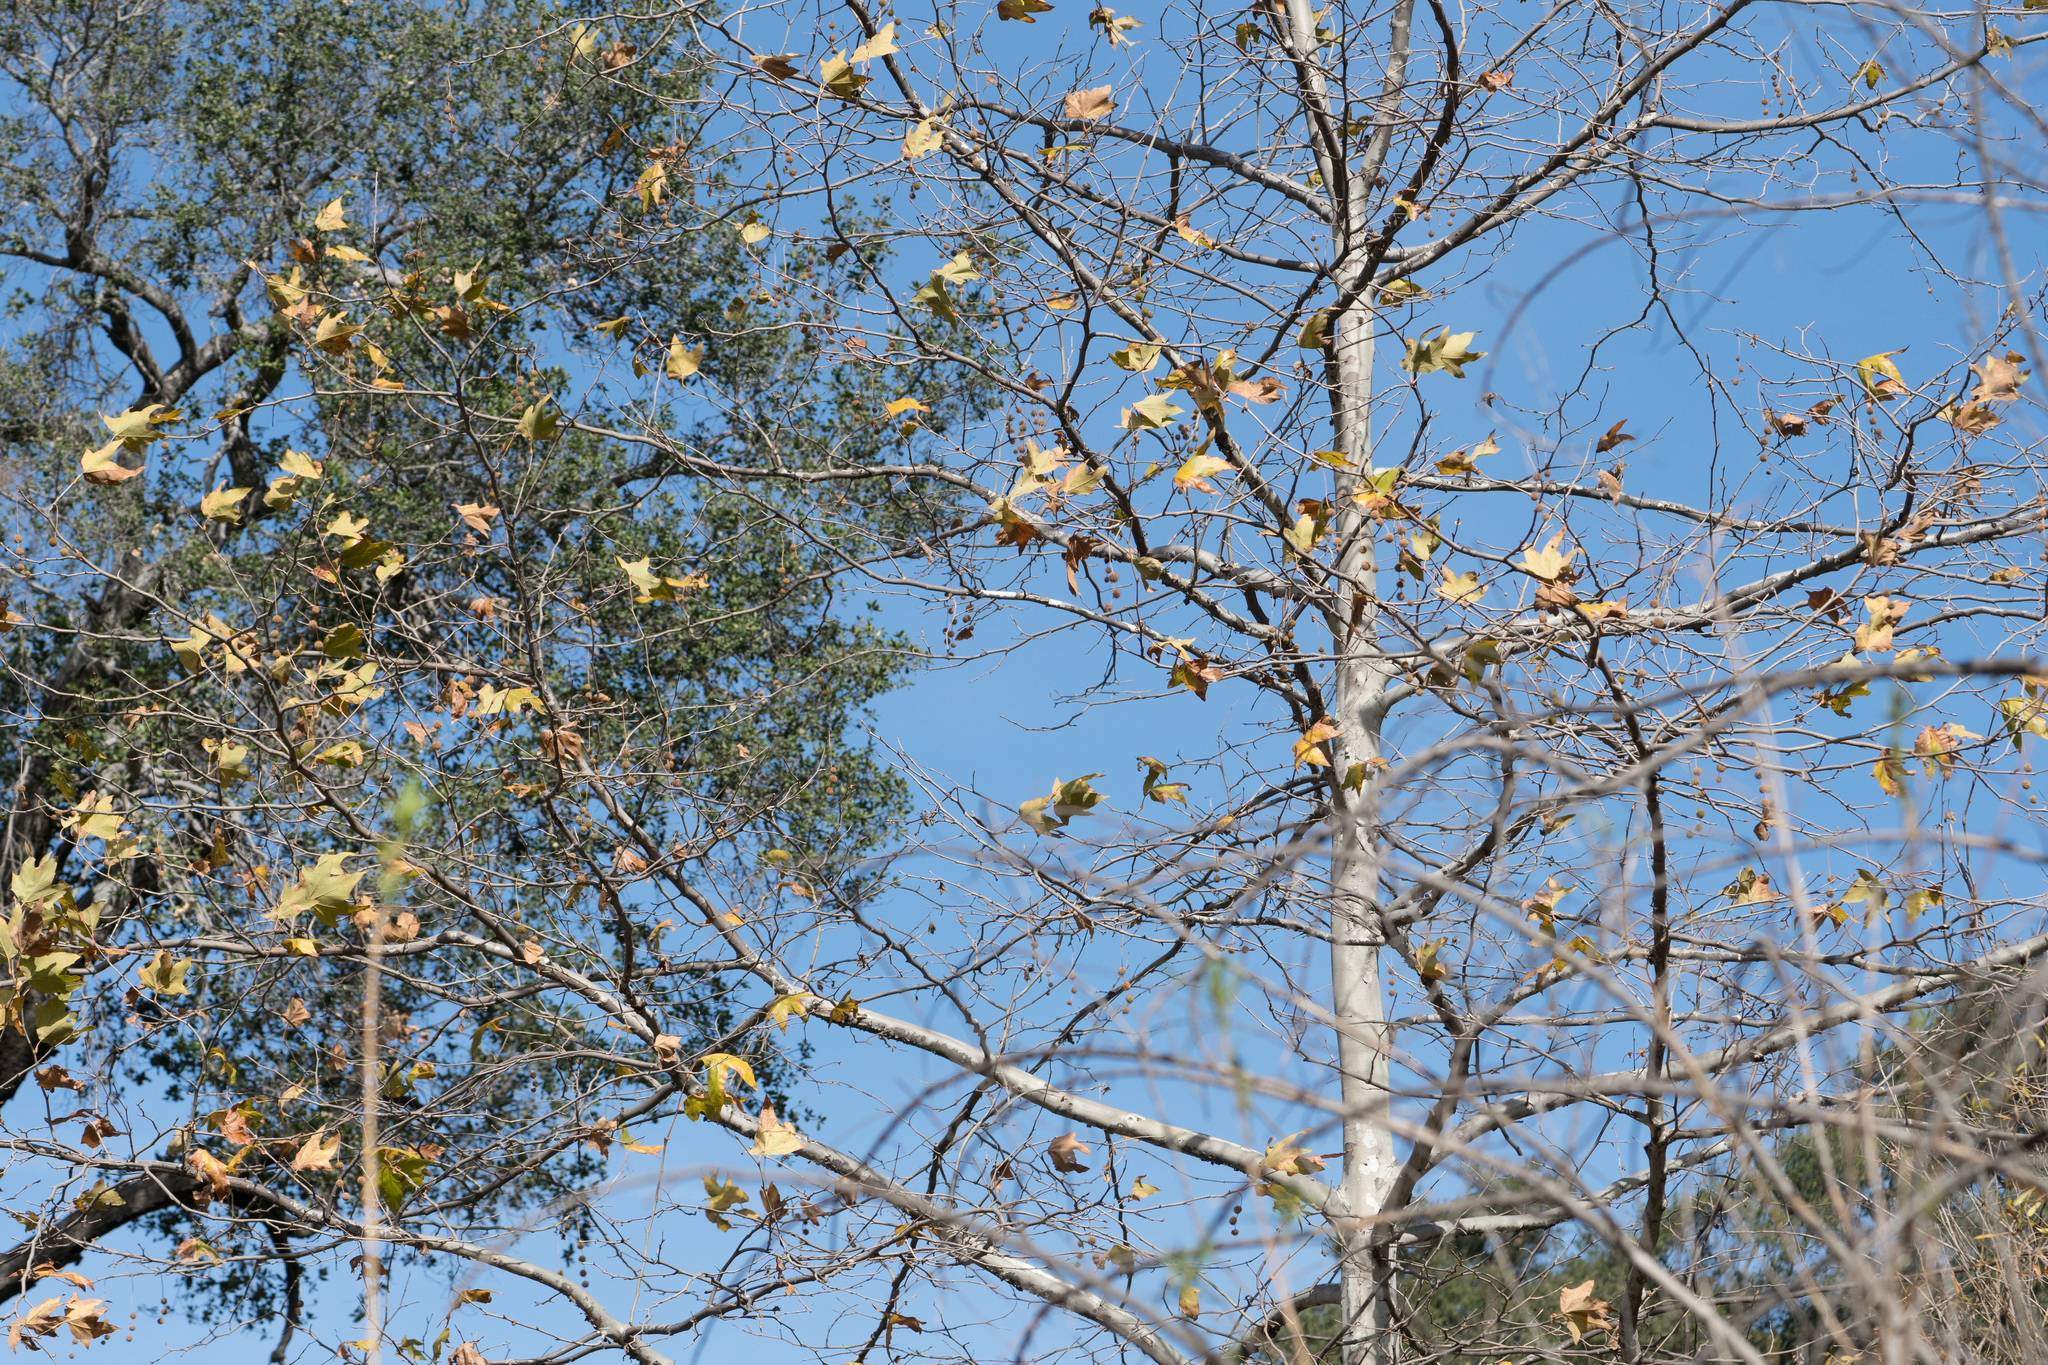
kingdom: Plantae
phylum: Tracheophyta
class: Magnoliopsida
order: Proteales
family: Platanaceae
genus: Platanus
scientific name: Platanus racemosa
